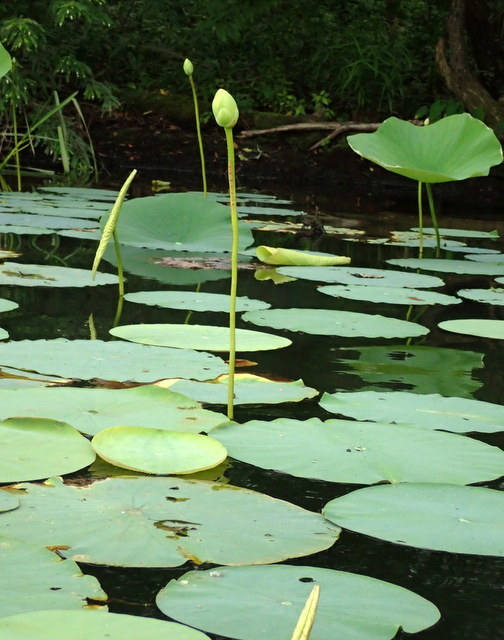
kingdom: Plantae
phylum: Tracheophyta
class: Magnoliopsida
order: Proteales
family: Nelumbonaceae
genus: Nelumbo
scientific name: Nelumbo lutea
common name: American lotus
